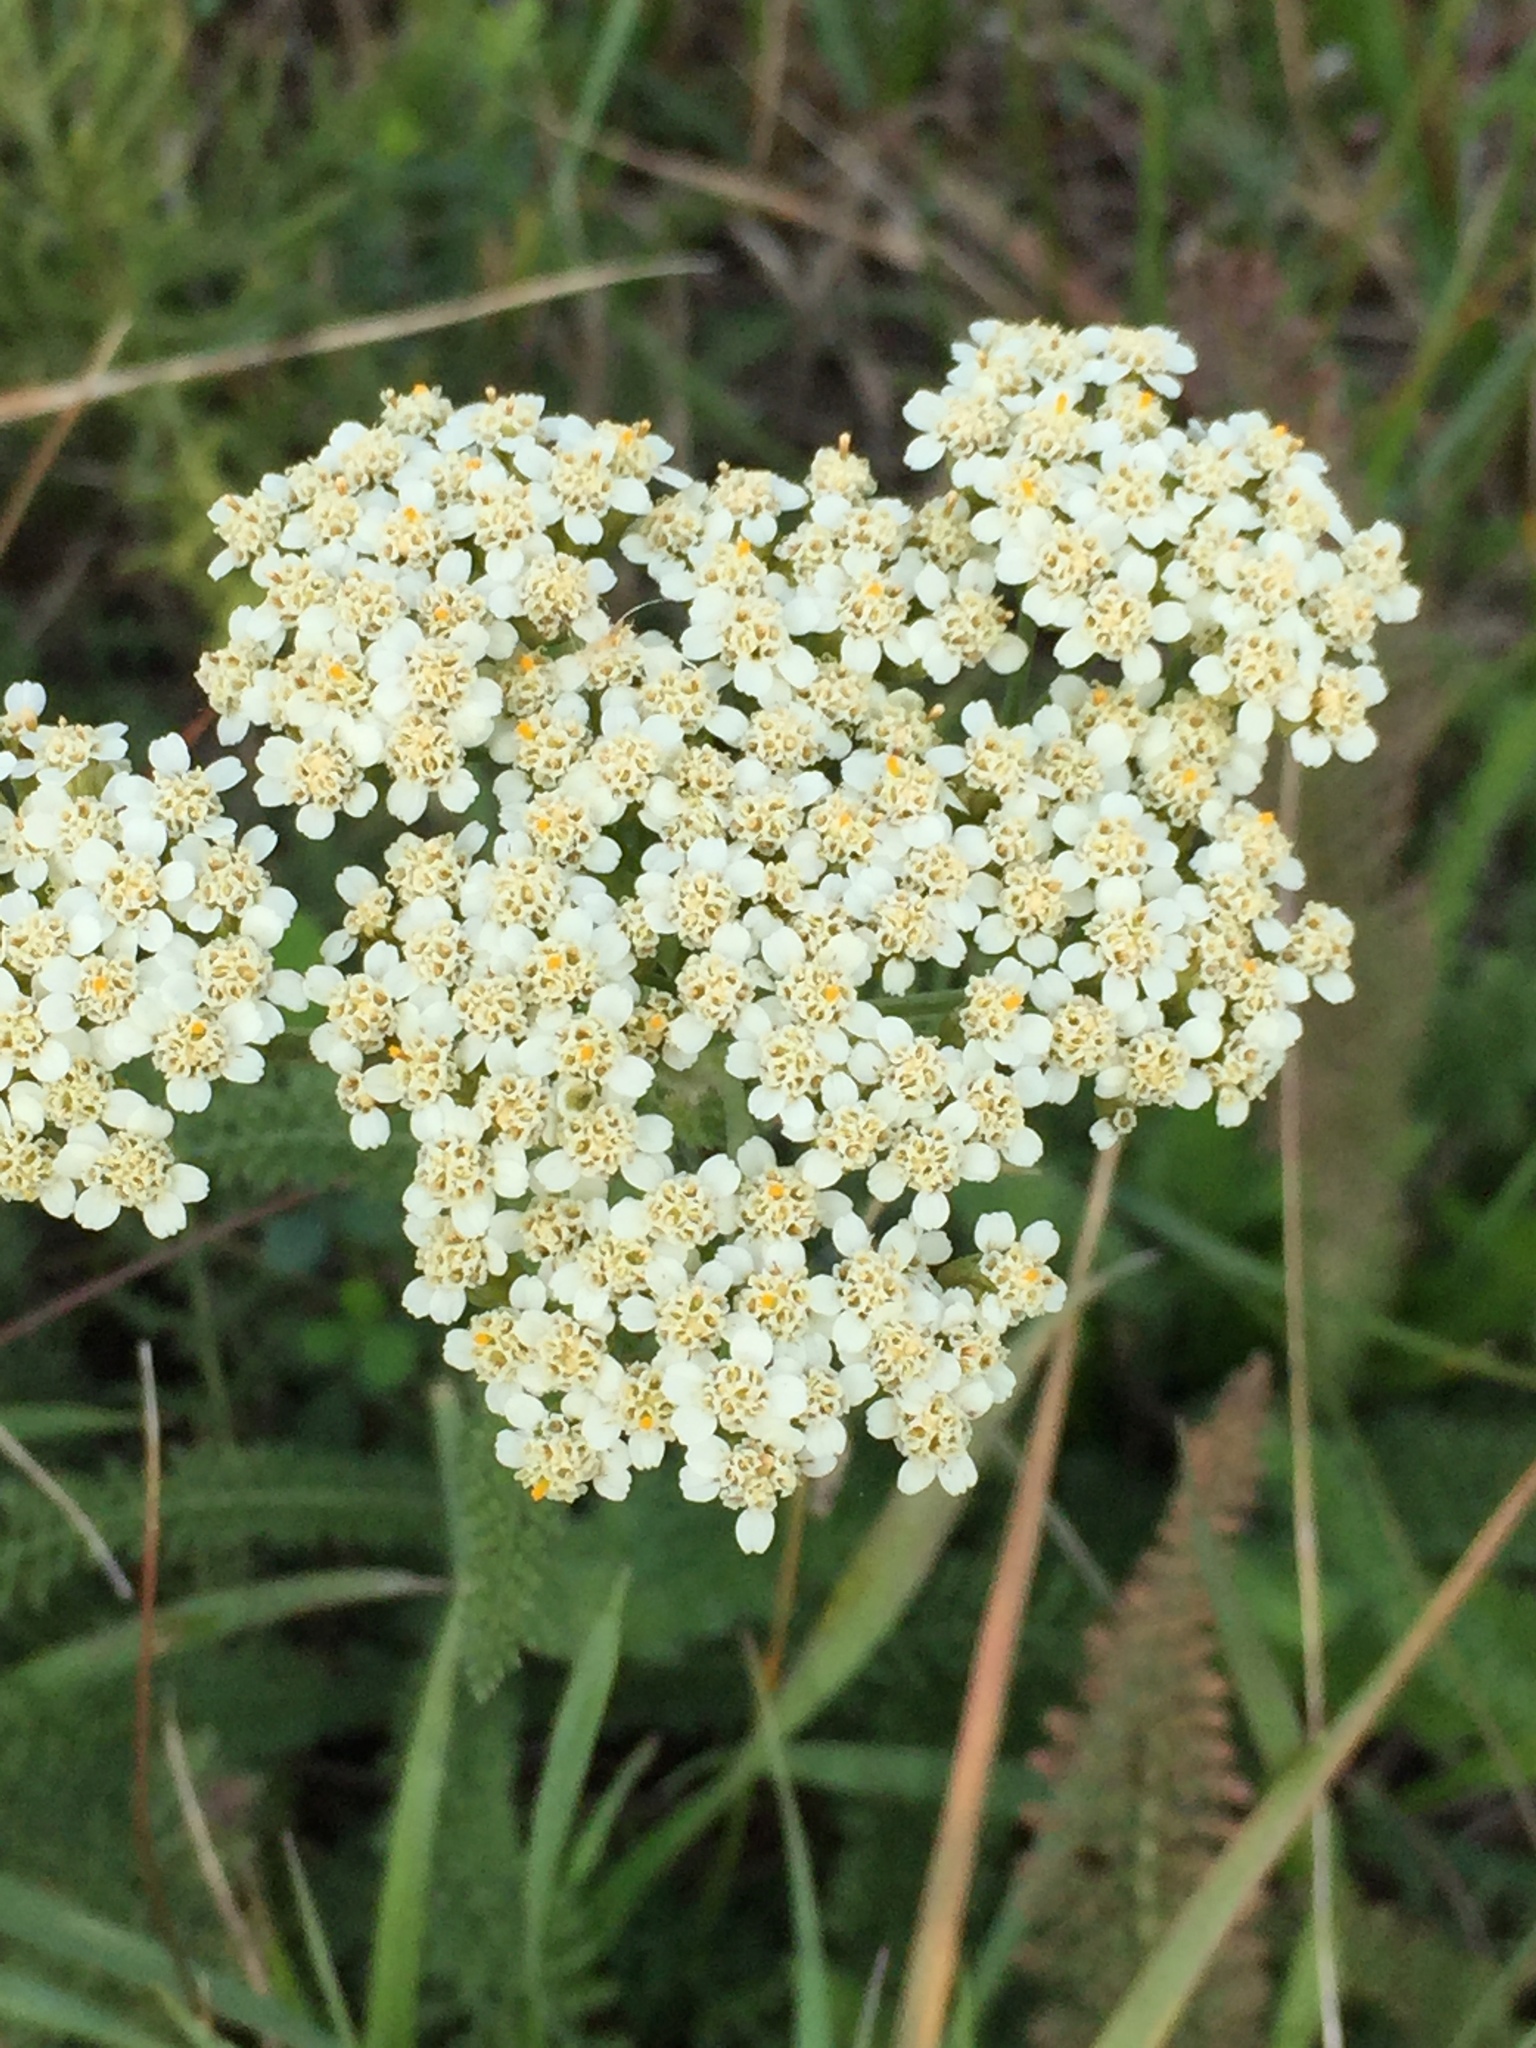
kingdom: Plantae
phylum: Tracheophyta
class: Magnoliopsida
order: Asterales
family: Asteraceae
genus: Achillea
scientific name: Achillea millefolium
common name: Yarrow
